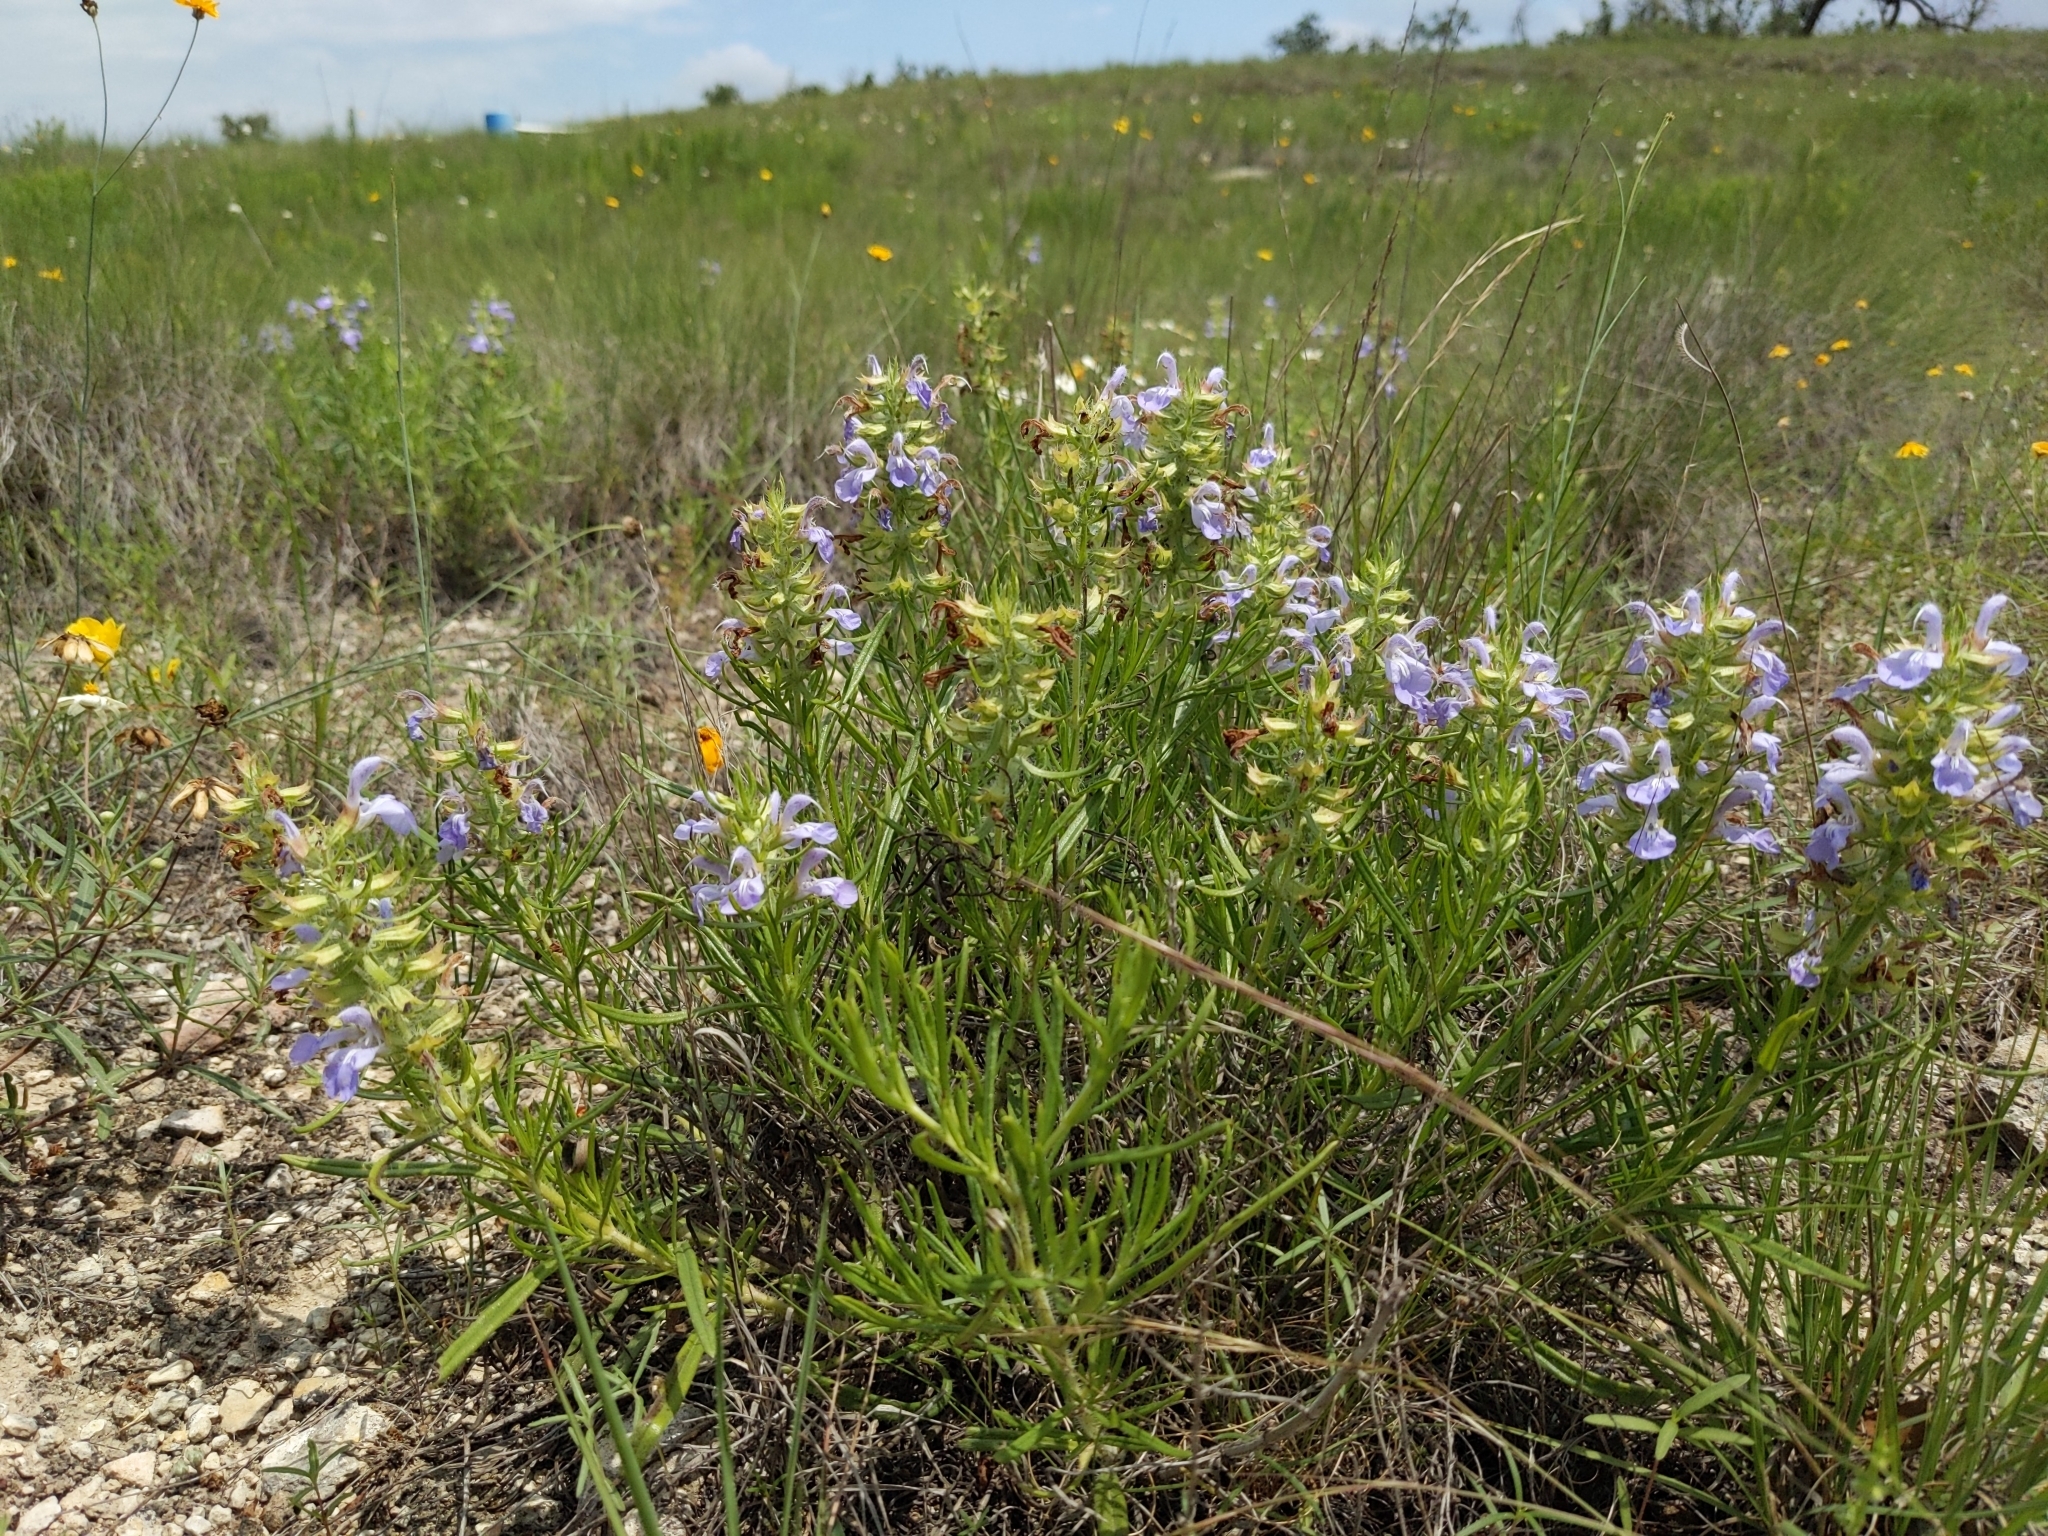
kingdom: Plantae
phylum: Tracheophyta
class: Magnoliopsida
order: Lamiales
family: Lamiaceae
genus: Salvia
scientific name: Salvia engelmannii
